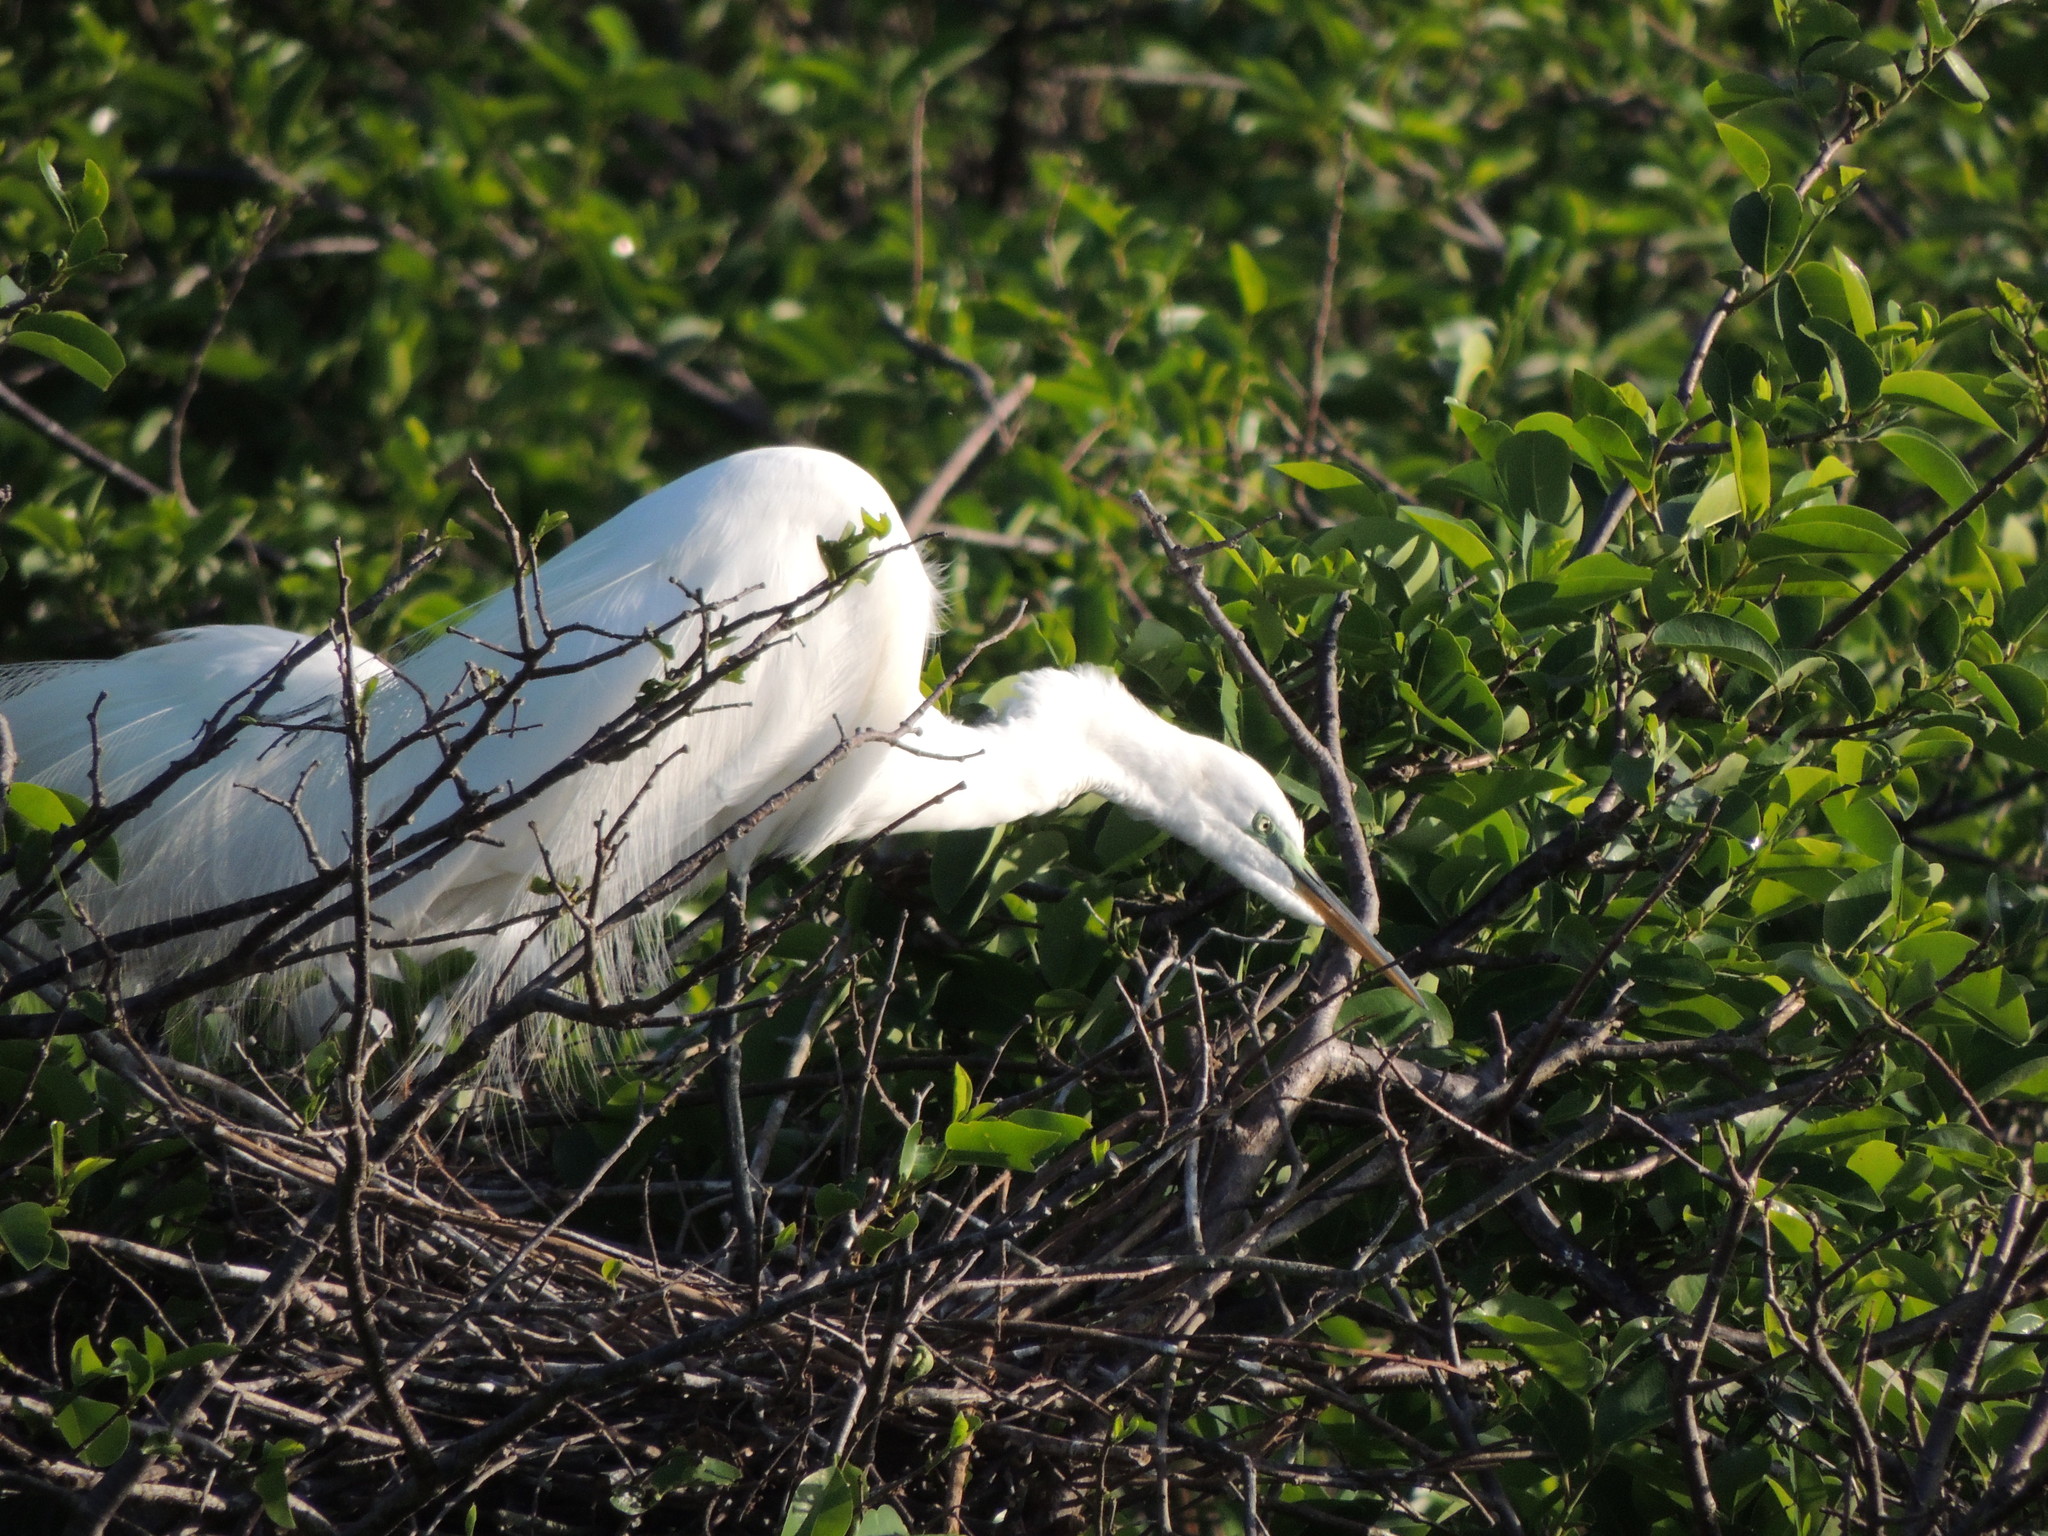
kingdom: Animalia
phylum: Chordata
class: Aves
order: Pelecaniformes
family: Ardeidae
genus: Ardea
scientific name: Ardea alba
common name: Great egret
